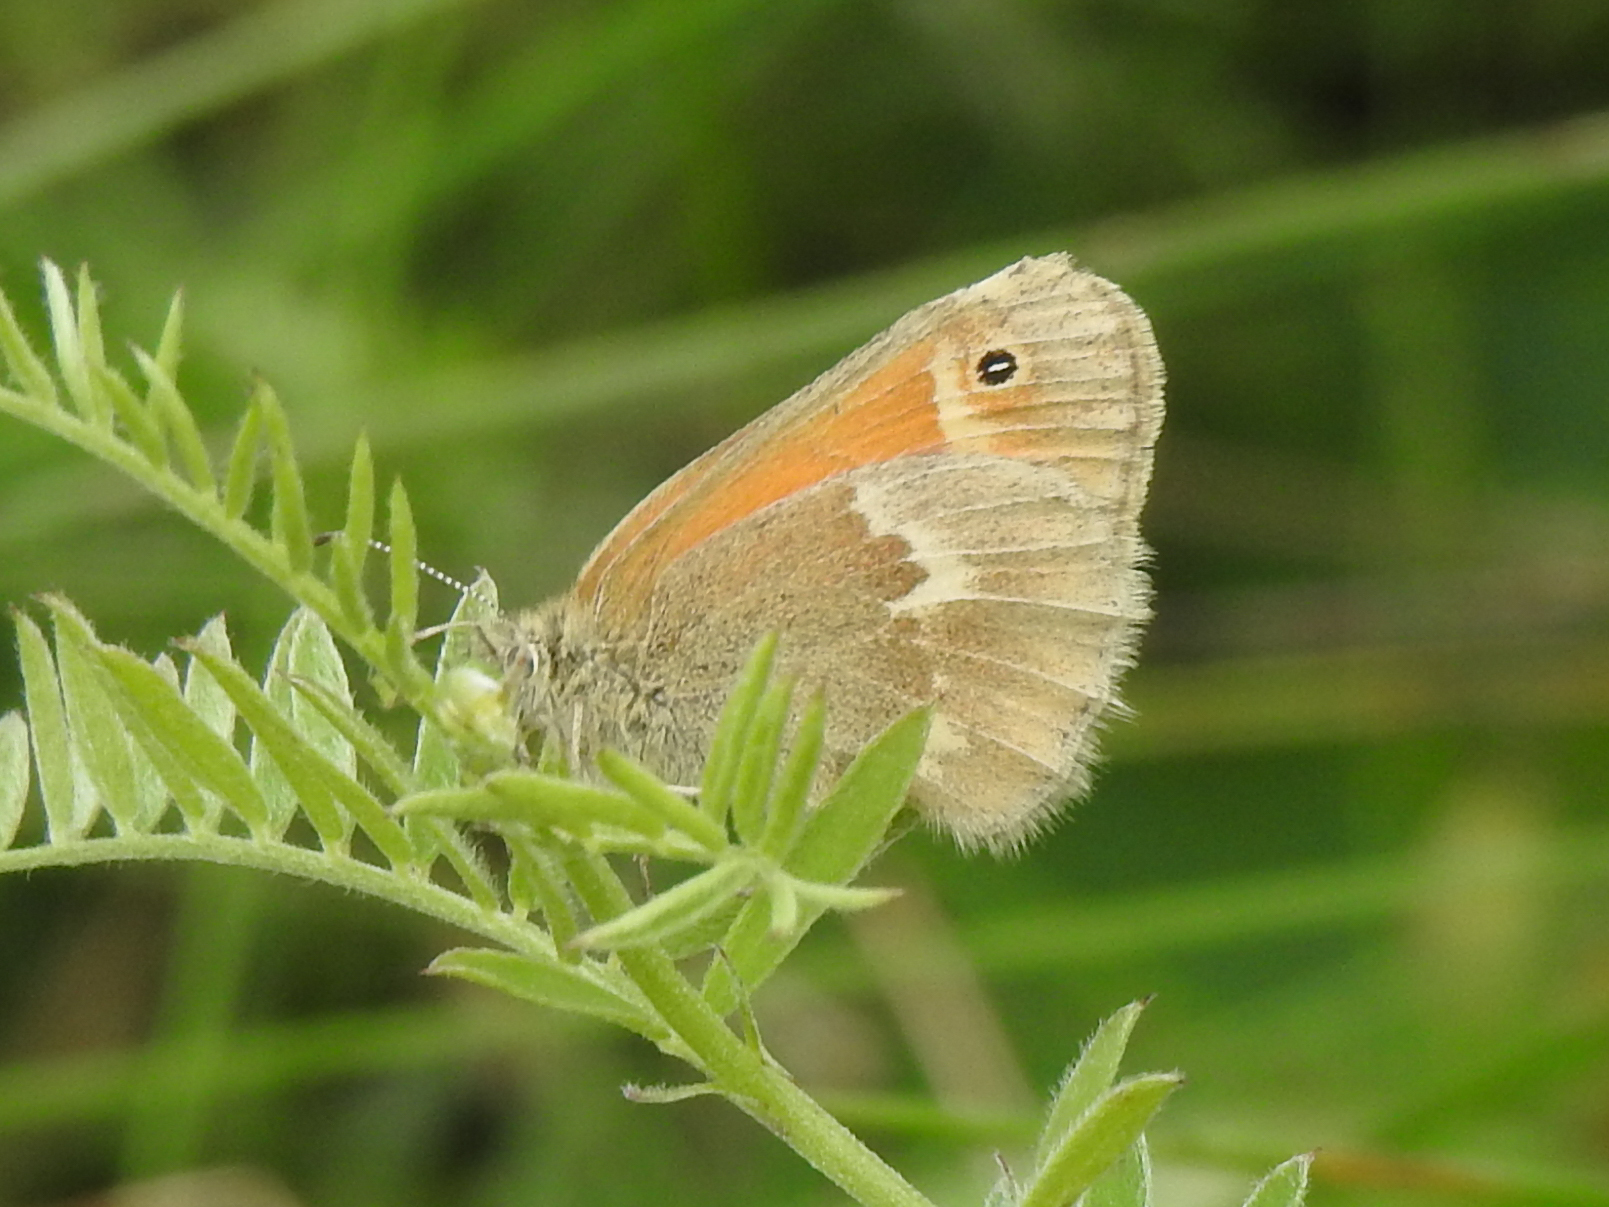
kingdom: Animalia
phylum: Arthropoda
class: Insecta
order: Lepidoptera
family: Nymphalidae
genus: Coenonympha
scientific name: Coenonympha california
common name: Common ringlet
